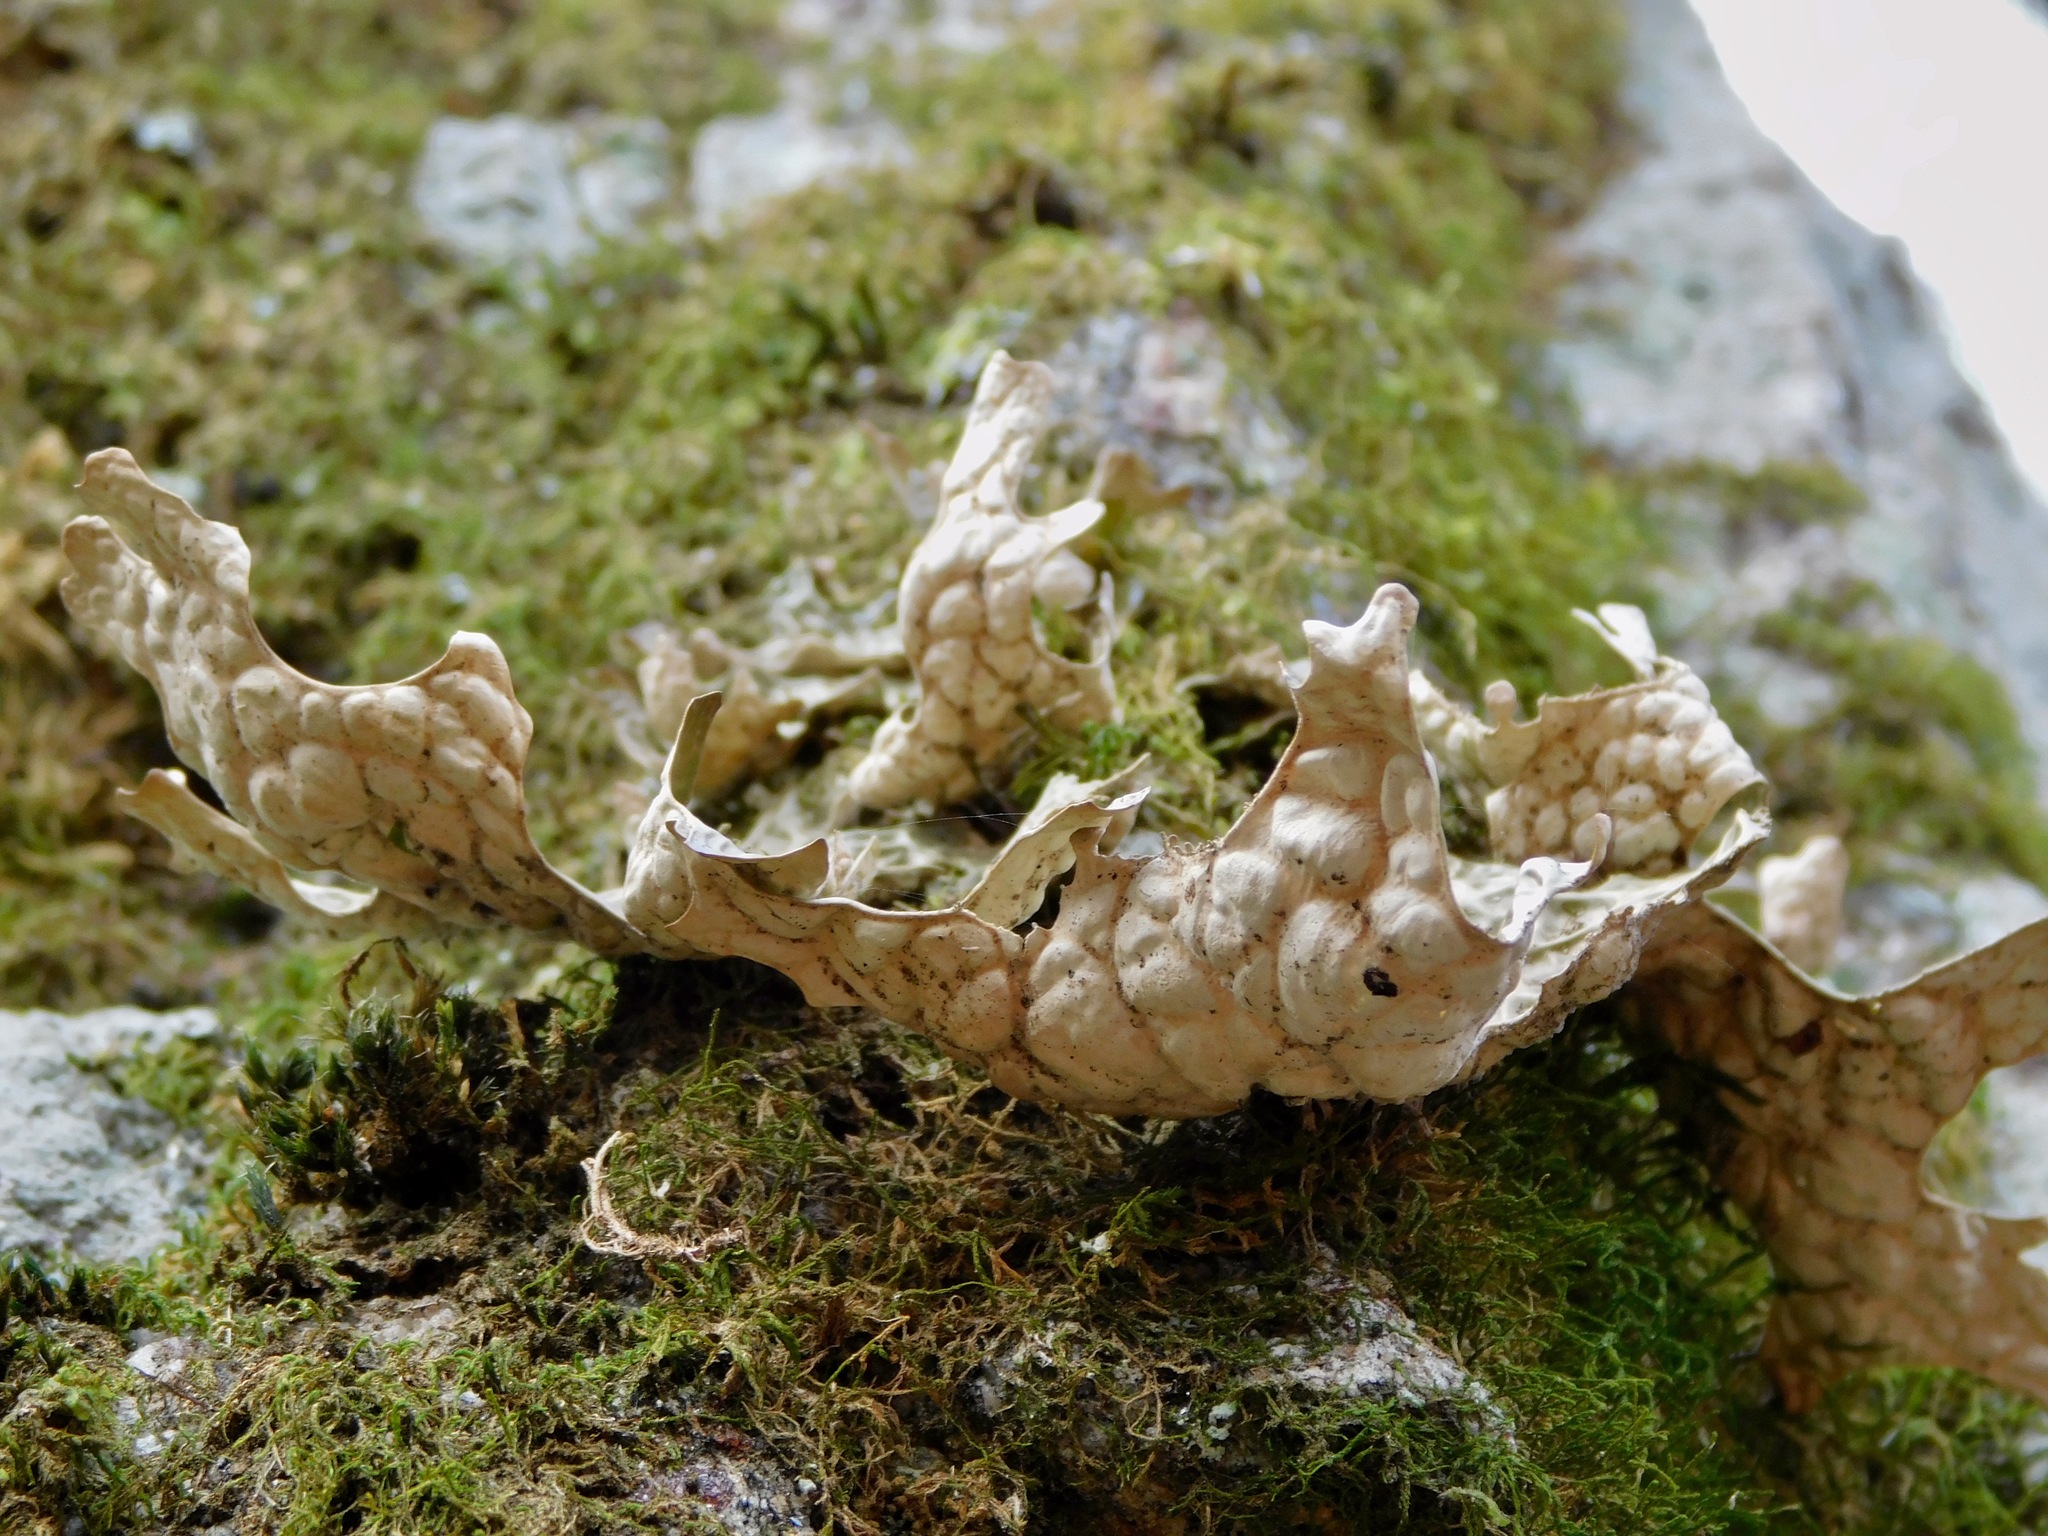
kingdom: Fungi
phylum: Ascomycota
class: Lecanoromycetes
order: Peltigerales
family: Lobariaceae
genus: Lobaria
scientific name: Lobaria pulmonaria
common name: Lungwort
